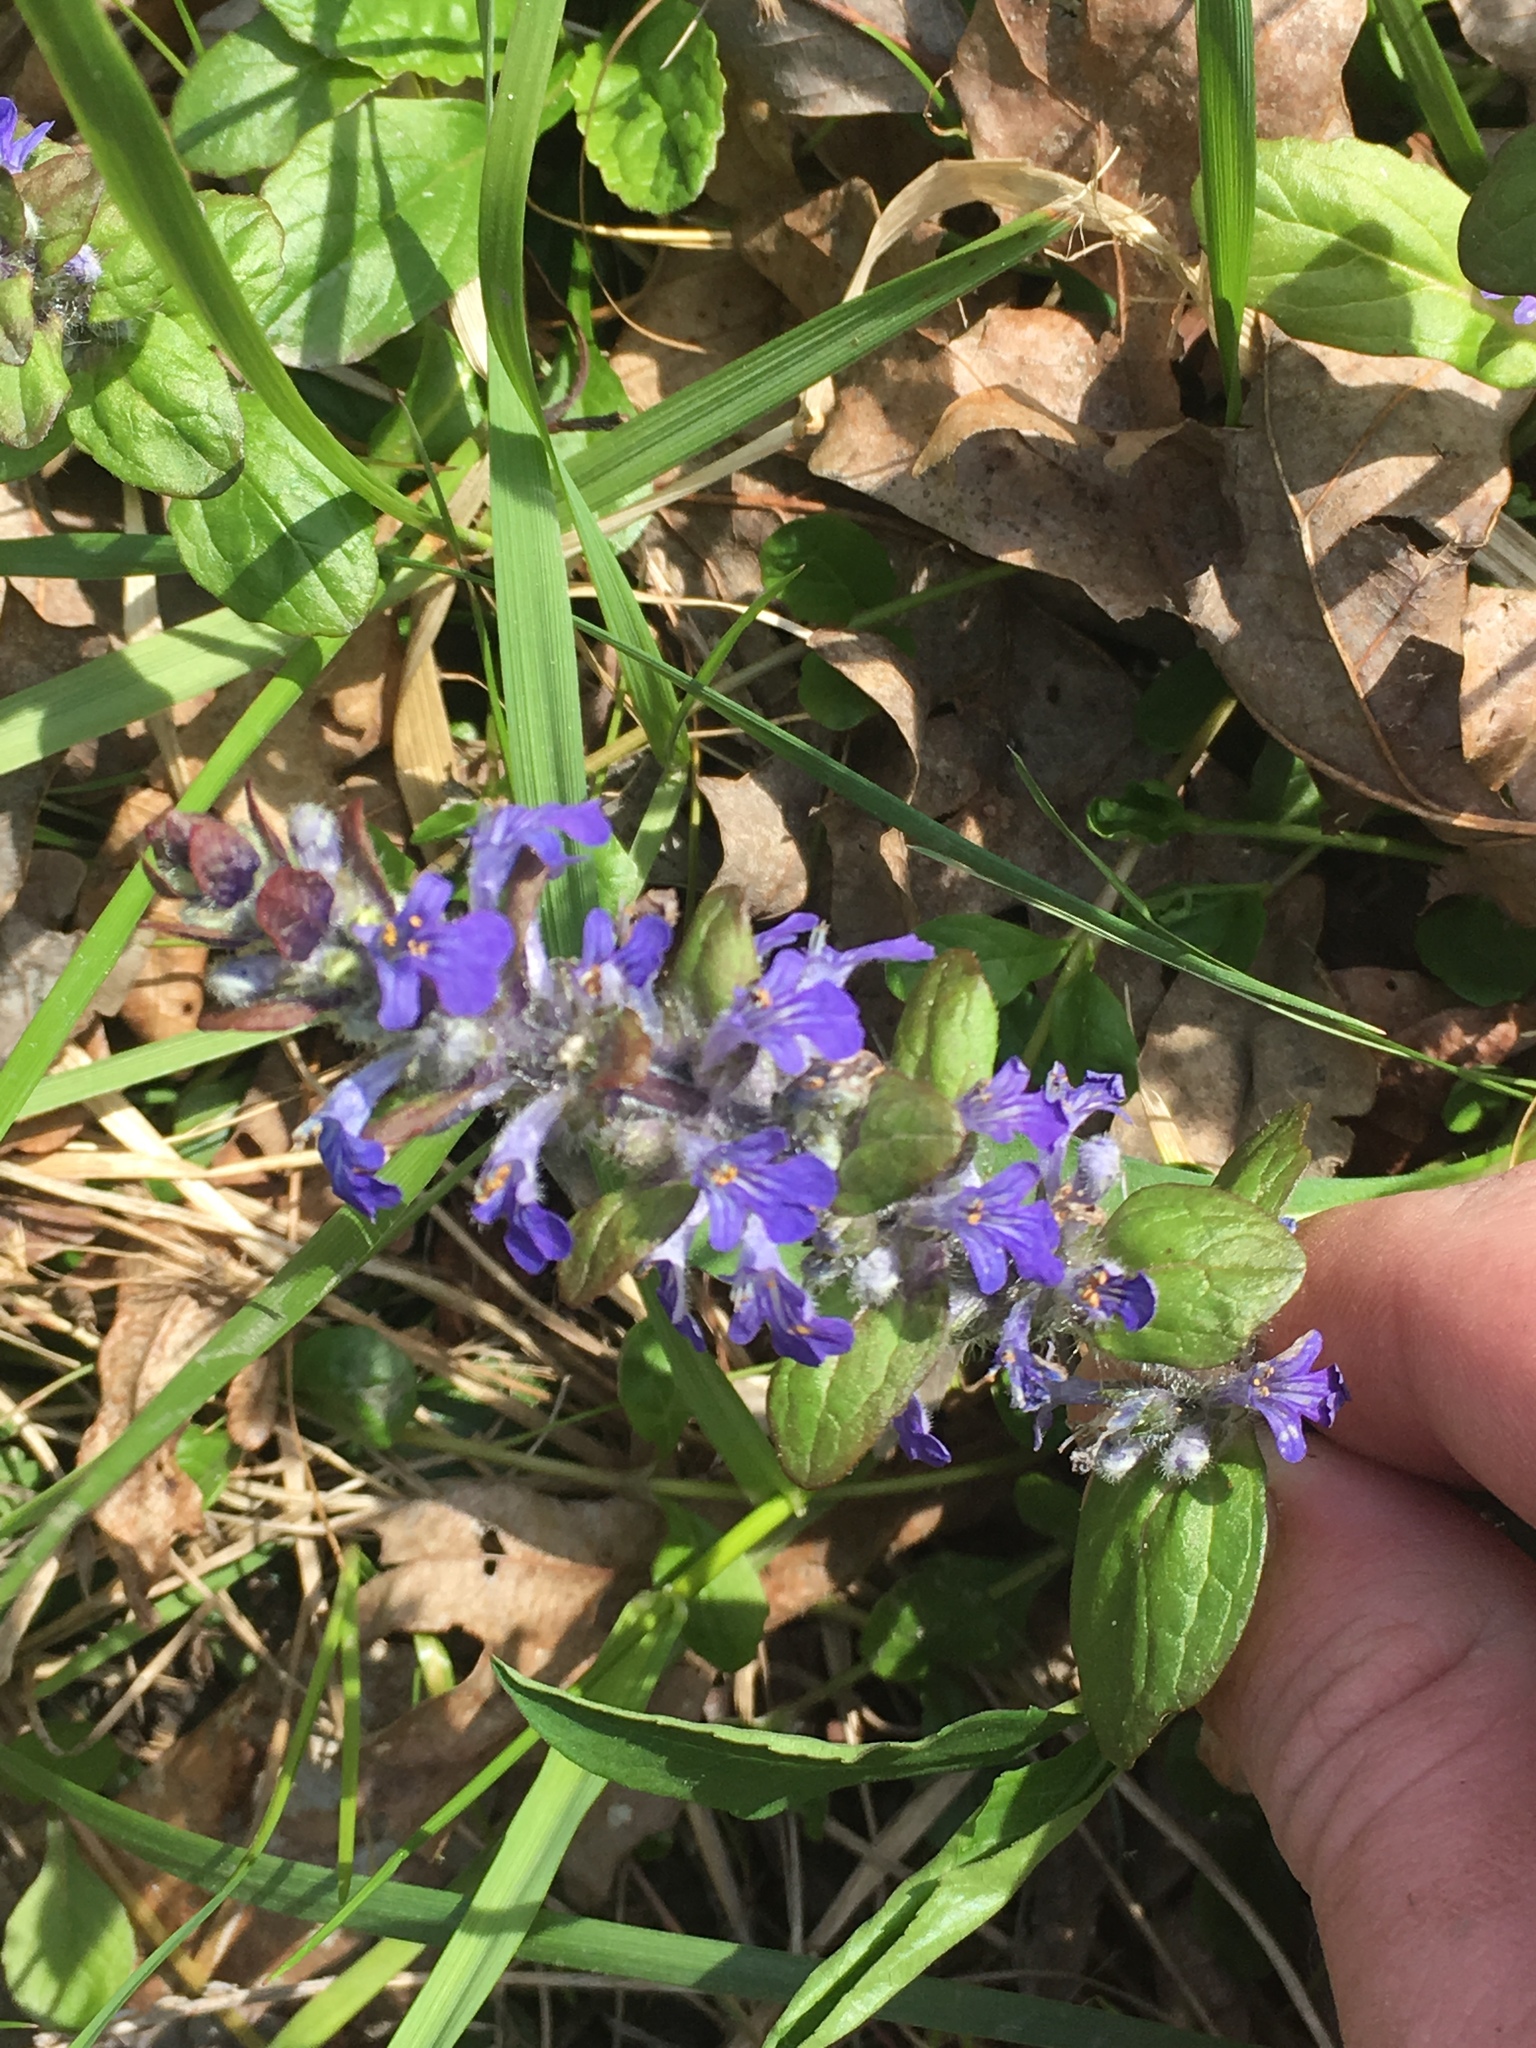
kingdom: Plantae
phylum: Tracheophyta
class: Magnoliopsida
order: Lamiales
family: Lamiaceae
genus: Ajuga
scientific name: Ajuga reptans
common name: Bugle
